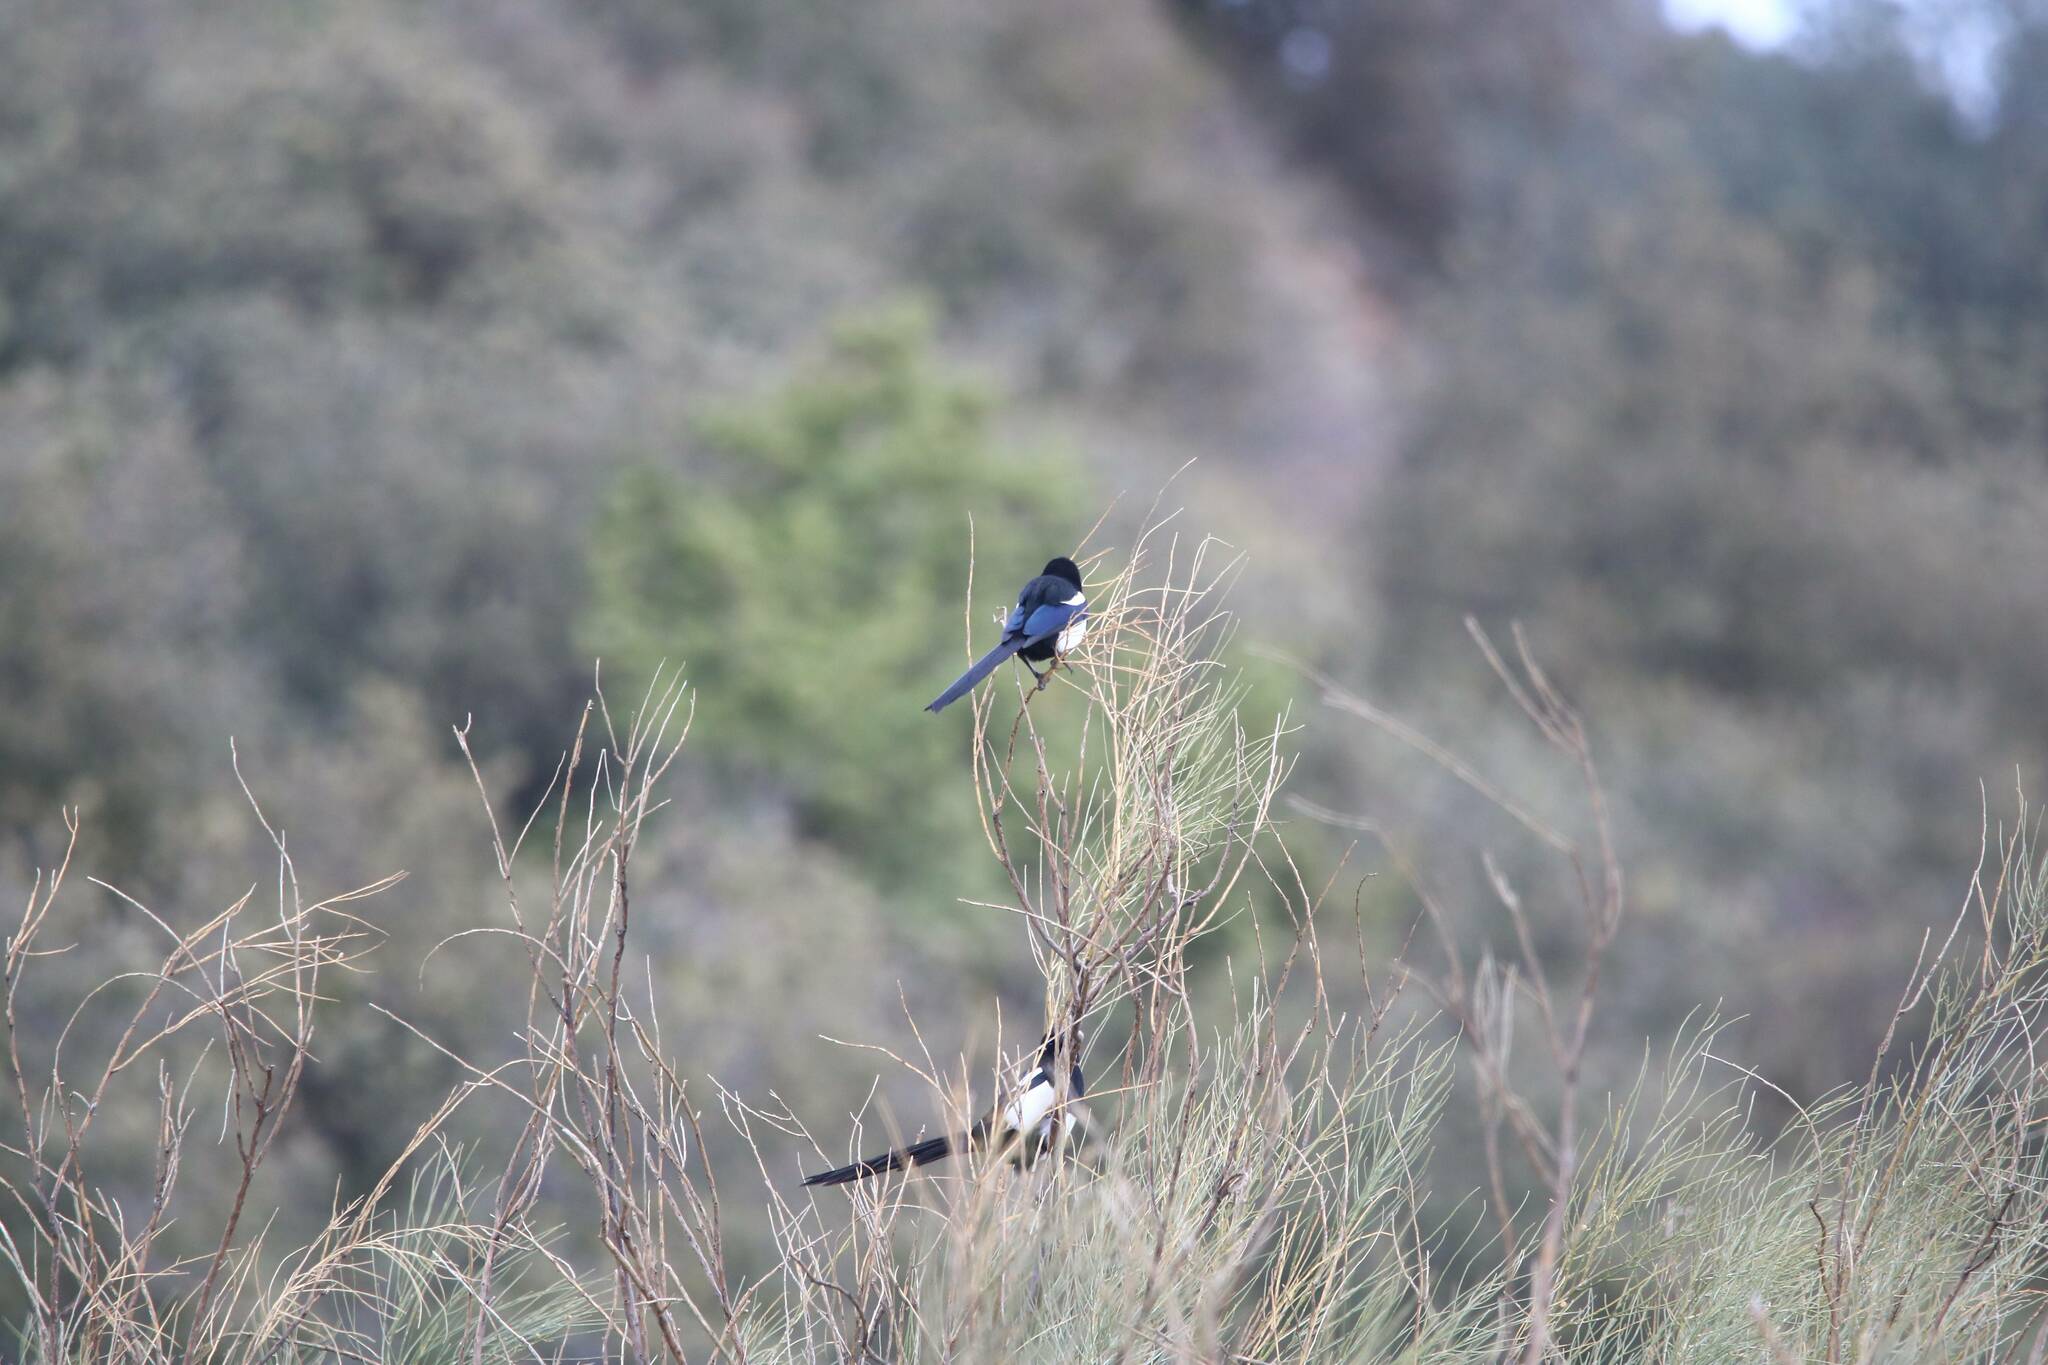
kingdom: Animalia
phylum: Chordata
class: Aves
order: Passeriformes
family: Corvidae
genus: Pica
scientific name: Pica mauritanica
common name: Maghreb magpie
